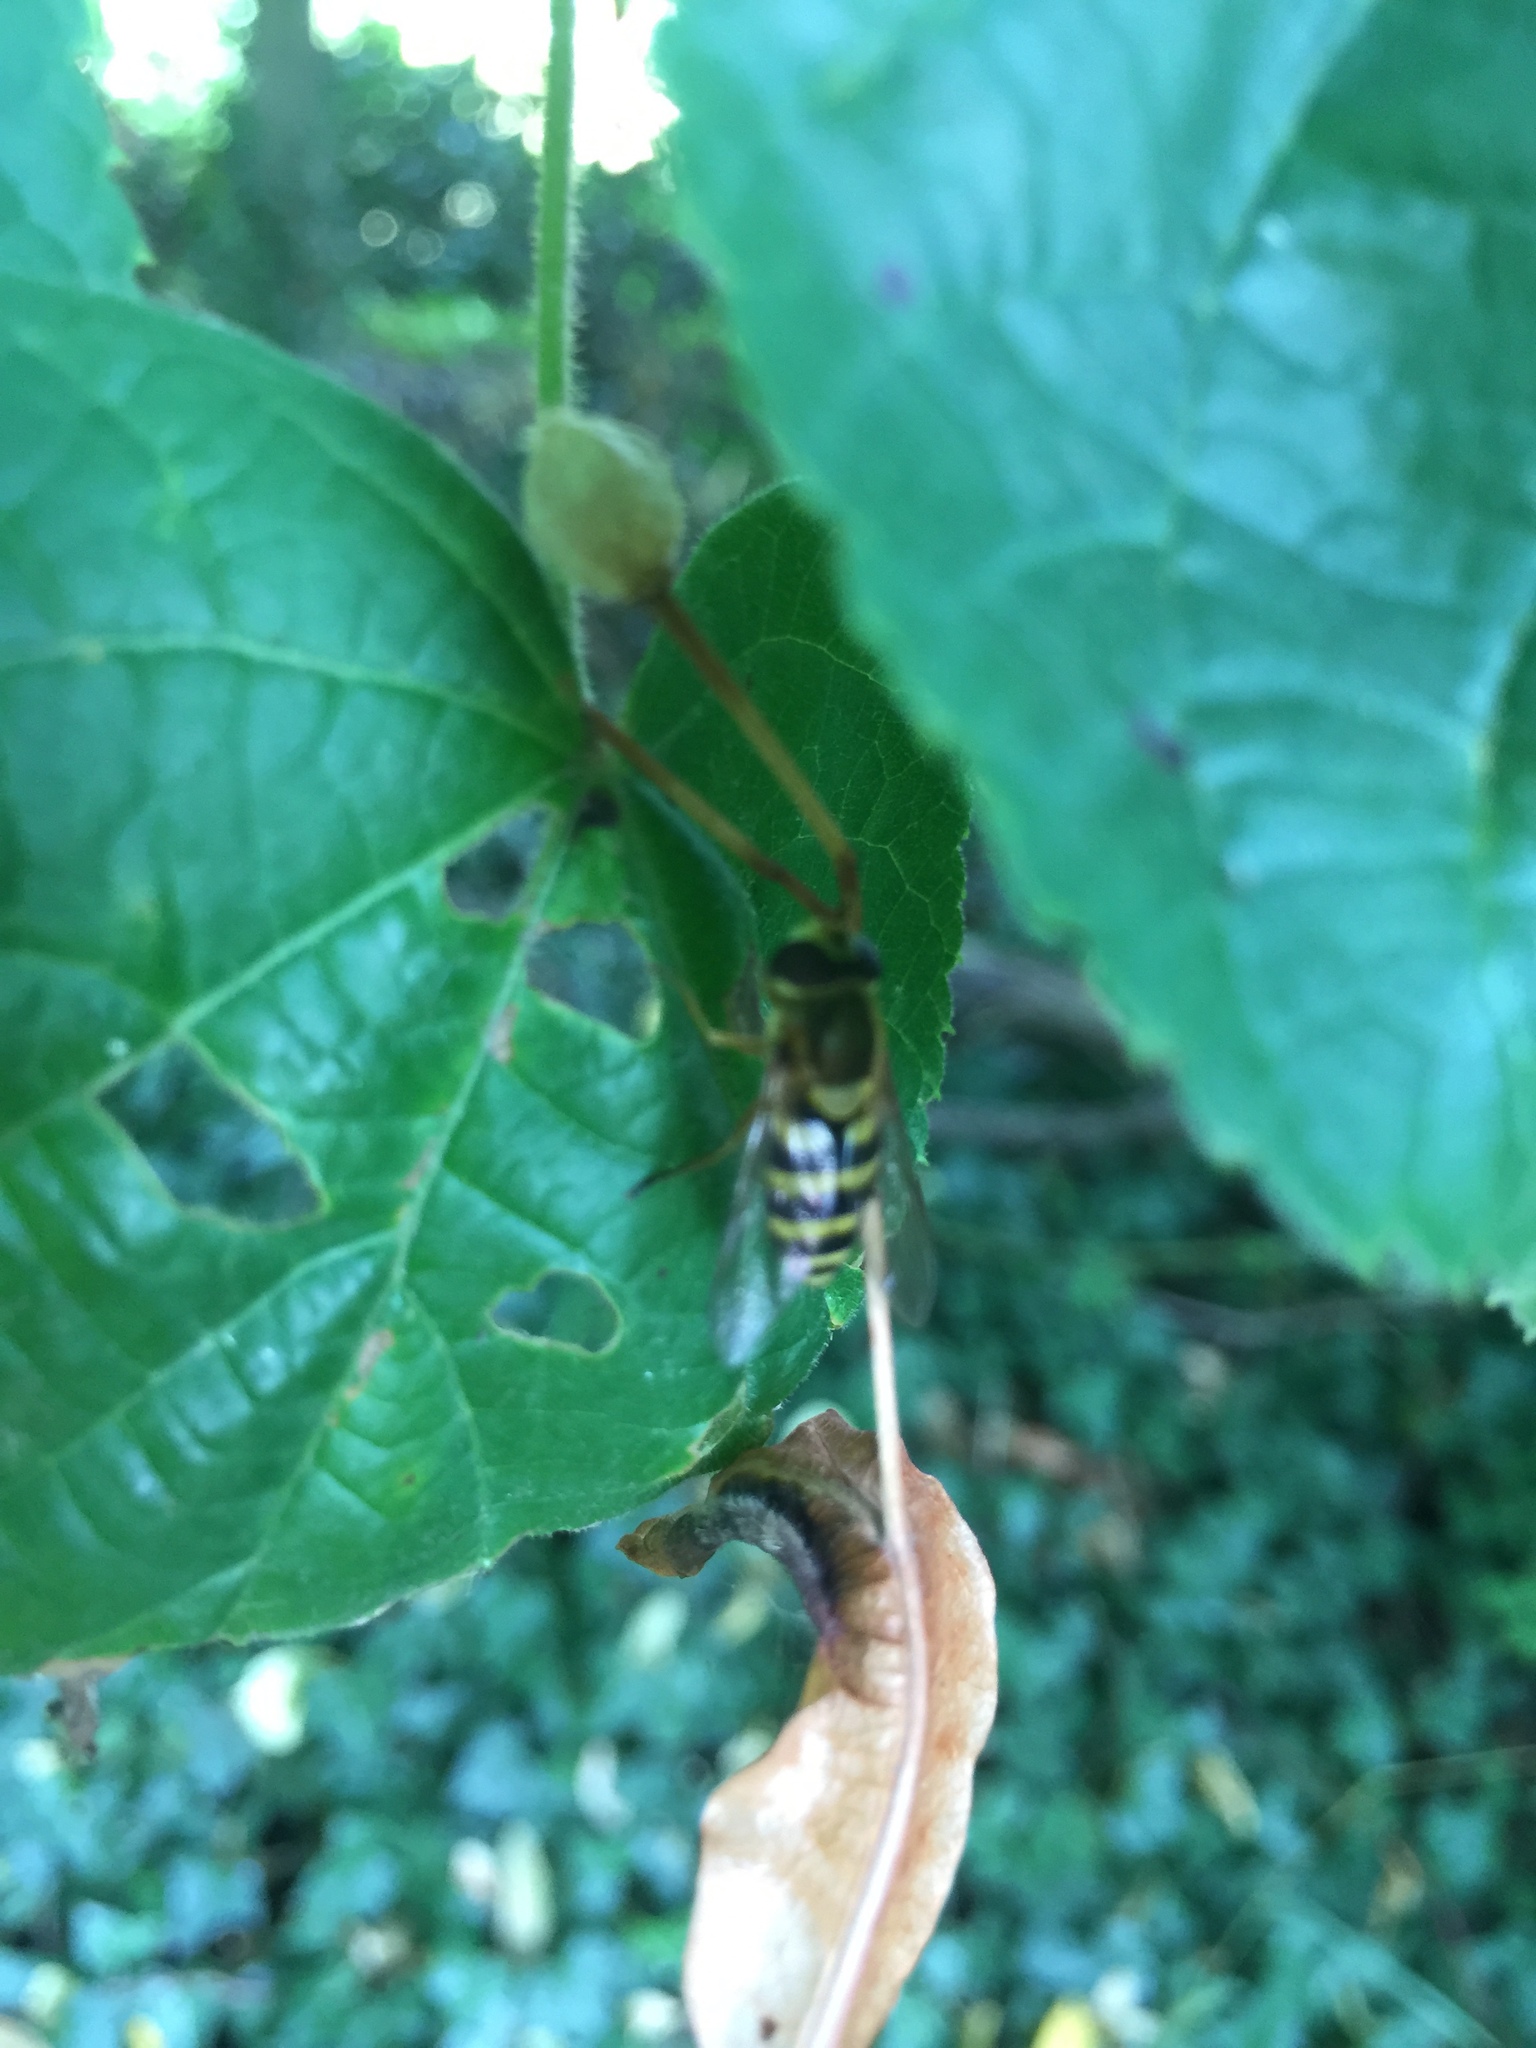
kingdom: Animalia
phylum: Arthropoda
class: Insecta
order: Diptera
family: Syrphidae
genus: Syrphus
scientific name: Syrphus
